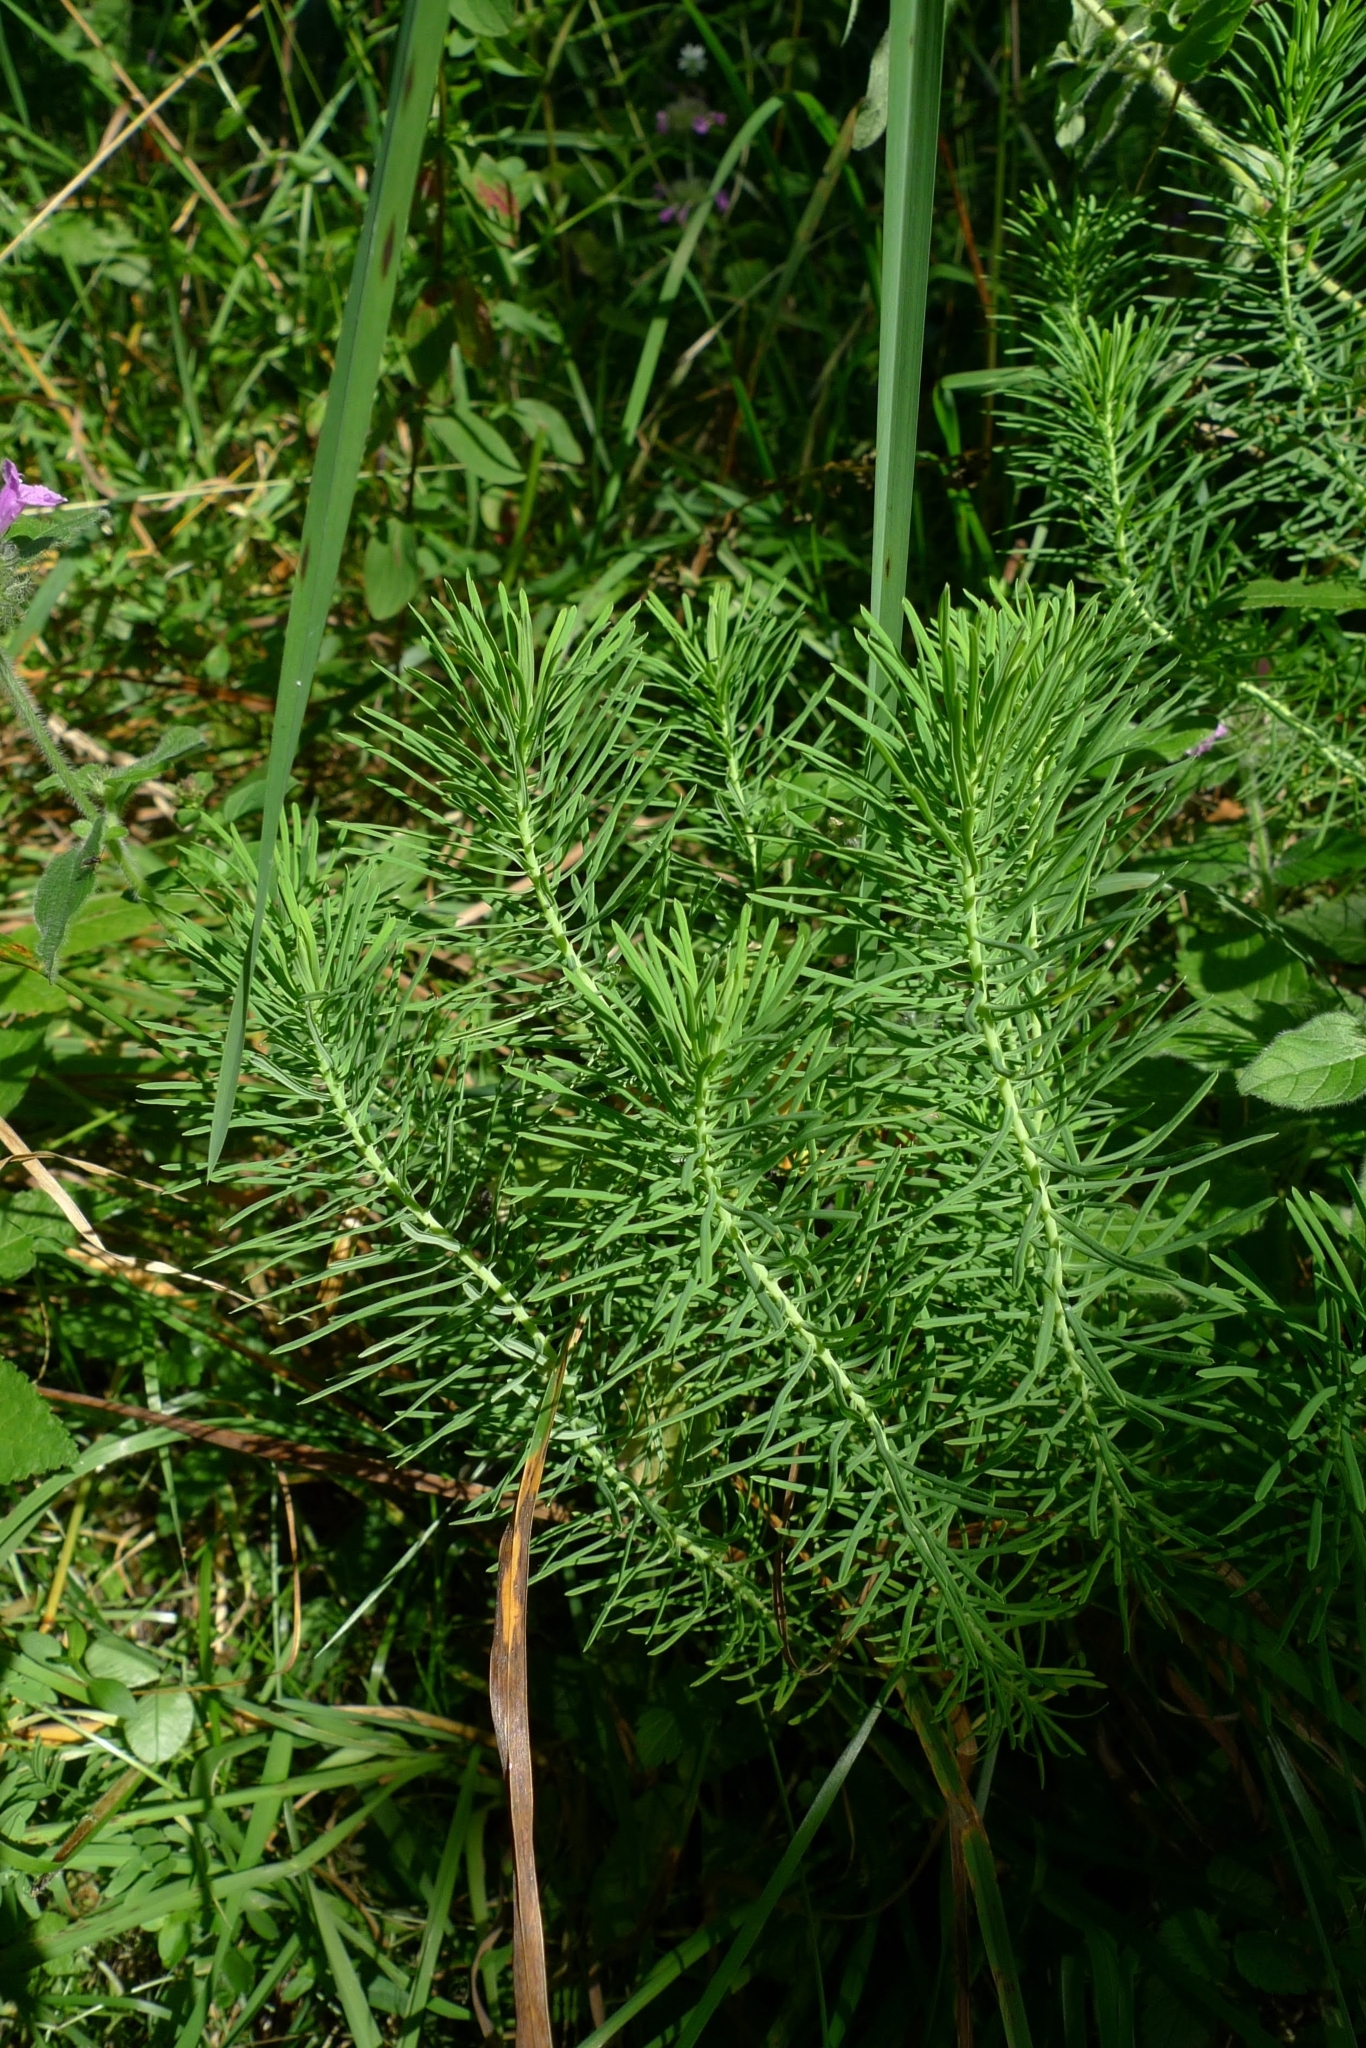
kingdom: Plantae
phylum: Tracheophyta
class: Magnoliopsida
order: Malpighiales
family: Euphorbiaceae
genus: Euphorbia
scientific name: Euphorbia cyparissias
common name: Cypress spurge
